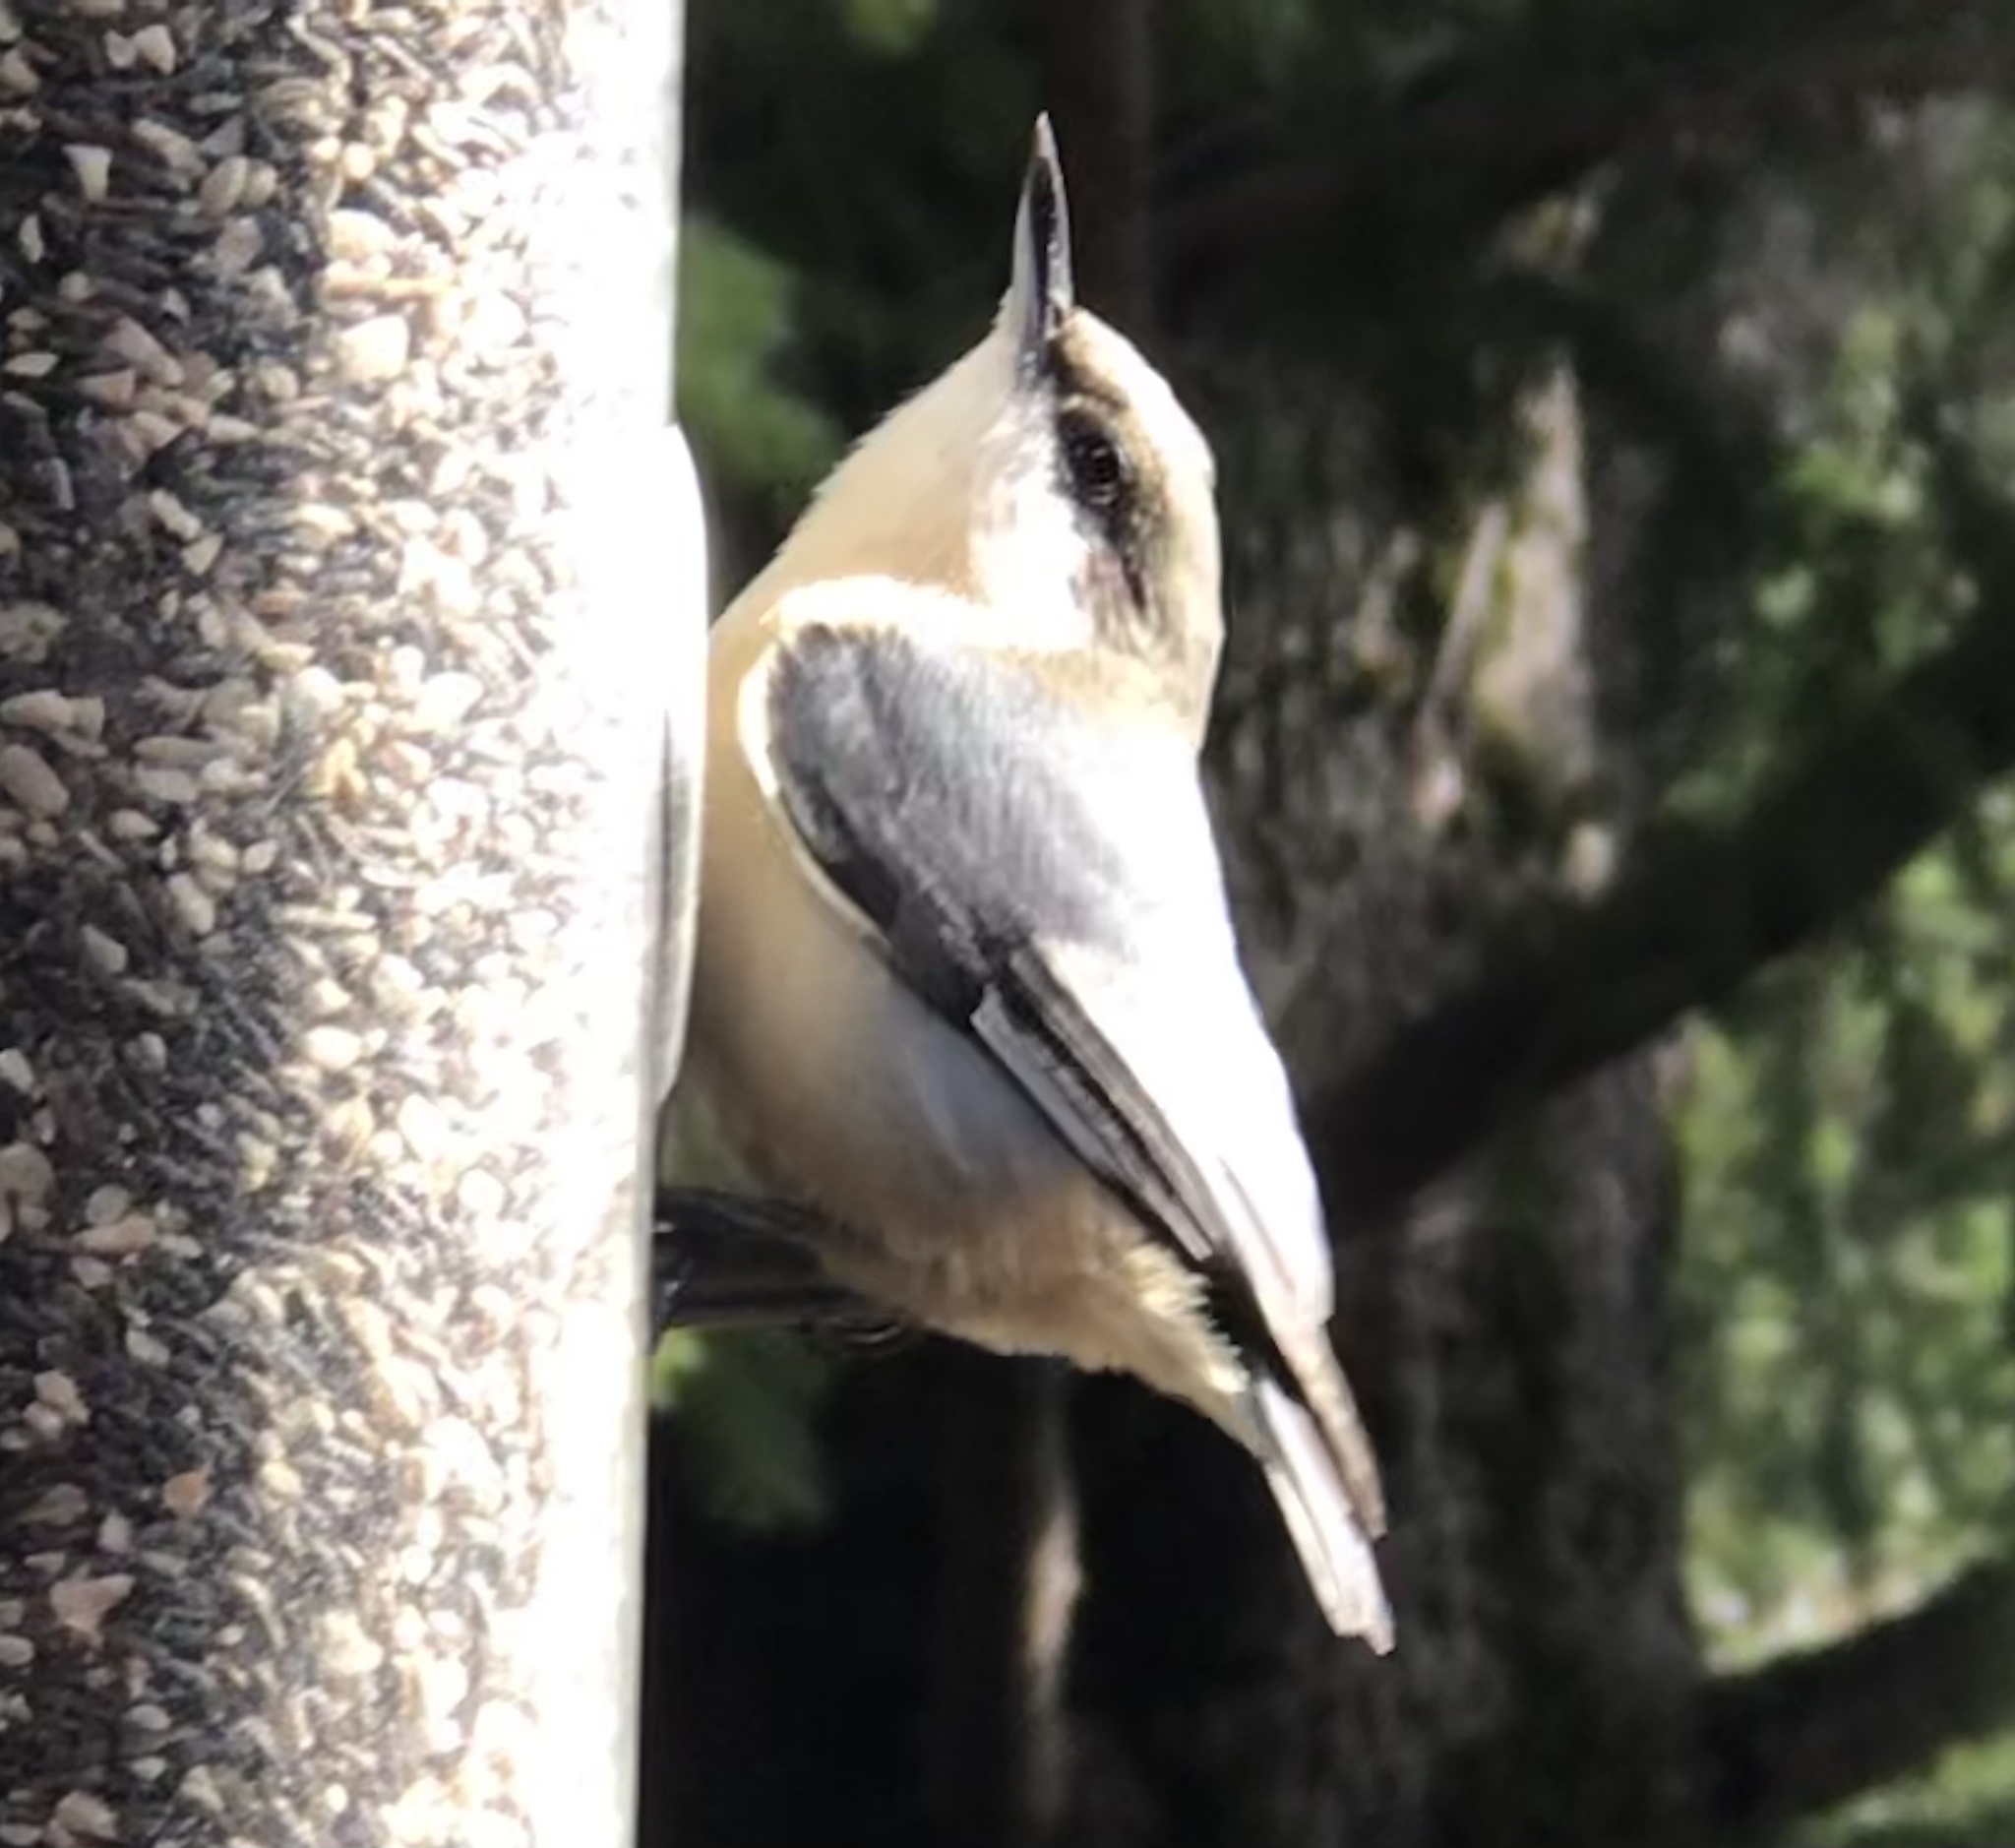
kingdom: Animalia
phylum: Chordata
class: Aves
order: Passeriformes
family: Sittidae
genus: Sitta
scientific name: Sitta pygmaea
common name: Pygmy nuthatch
